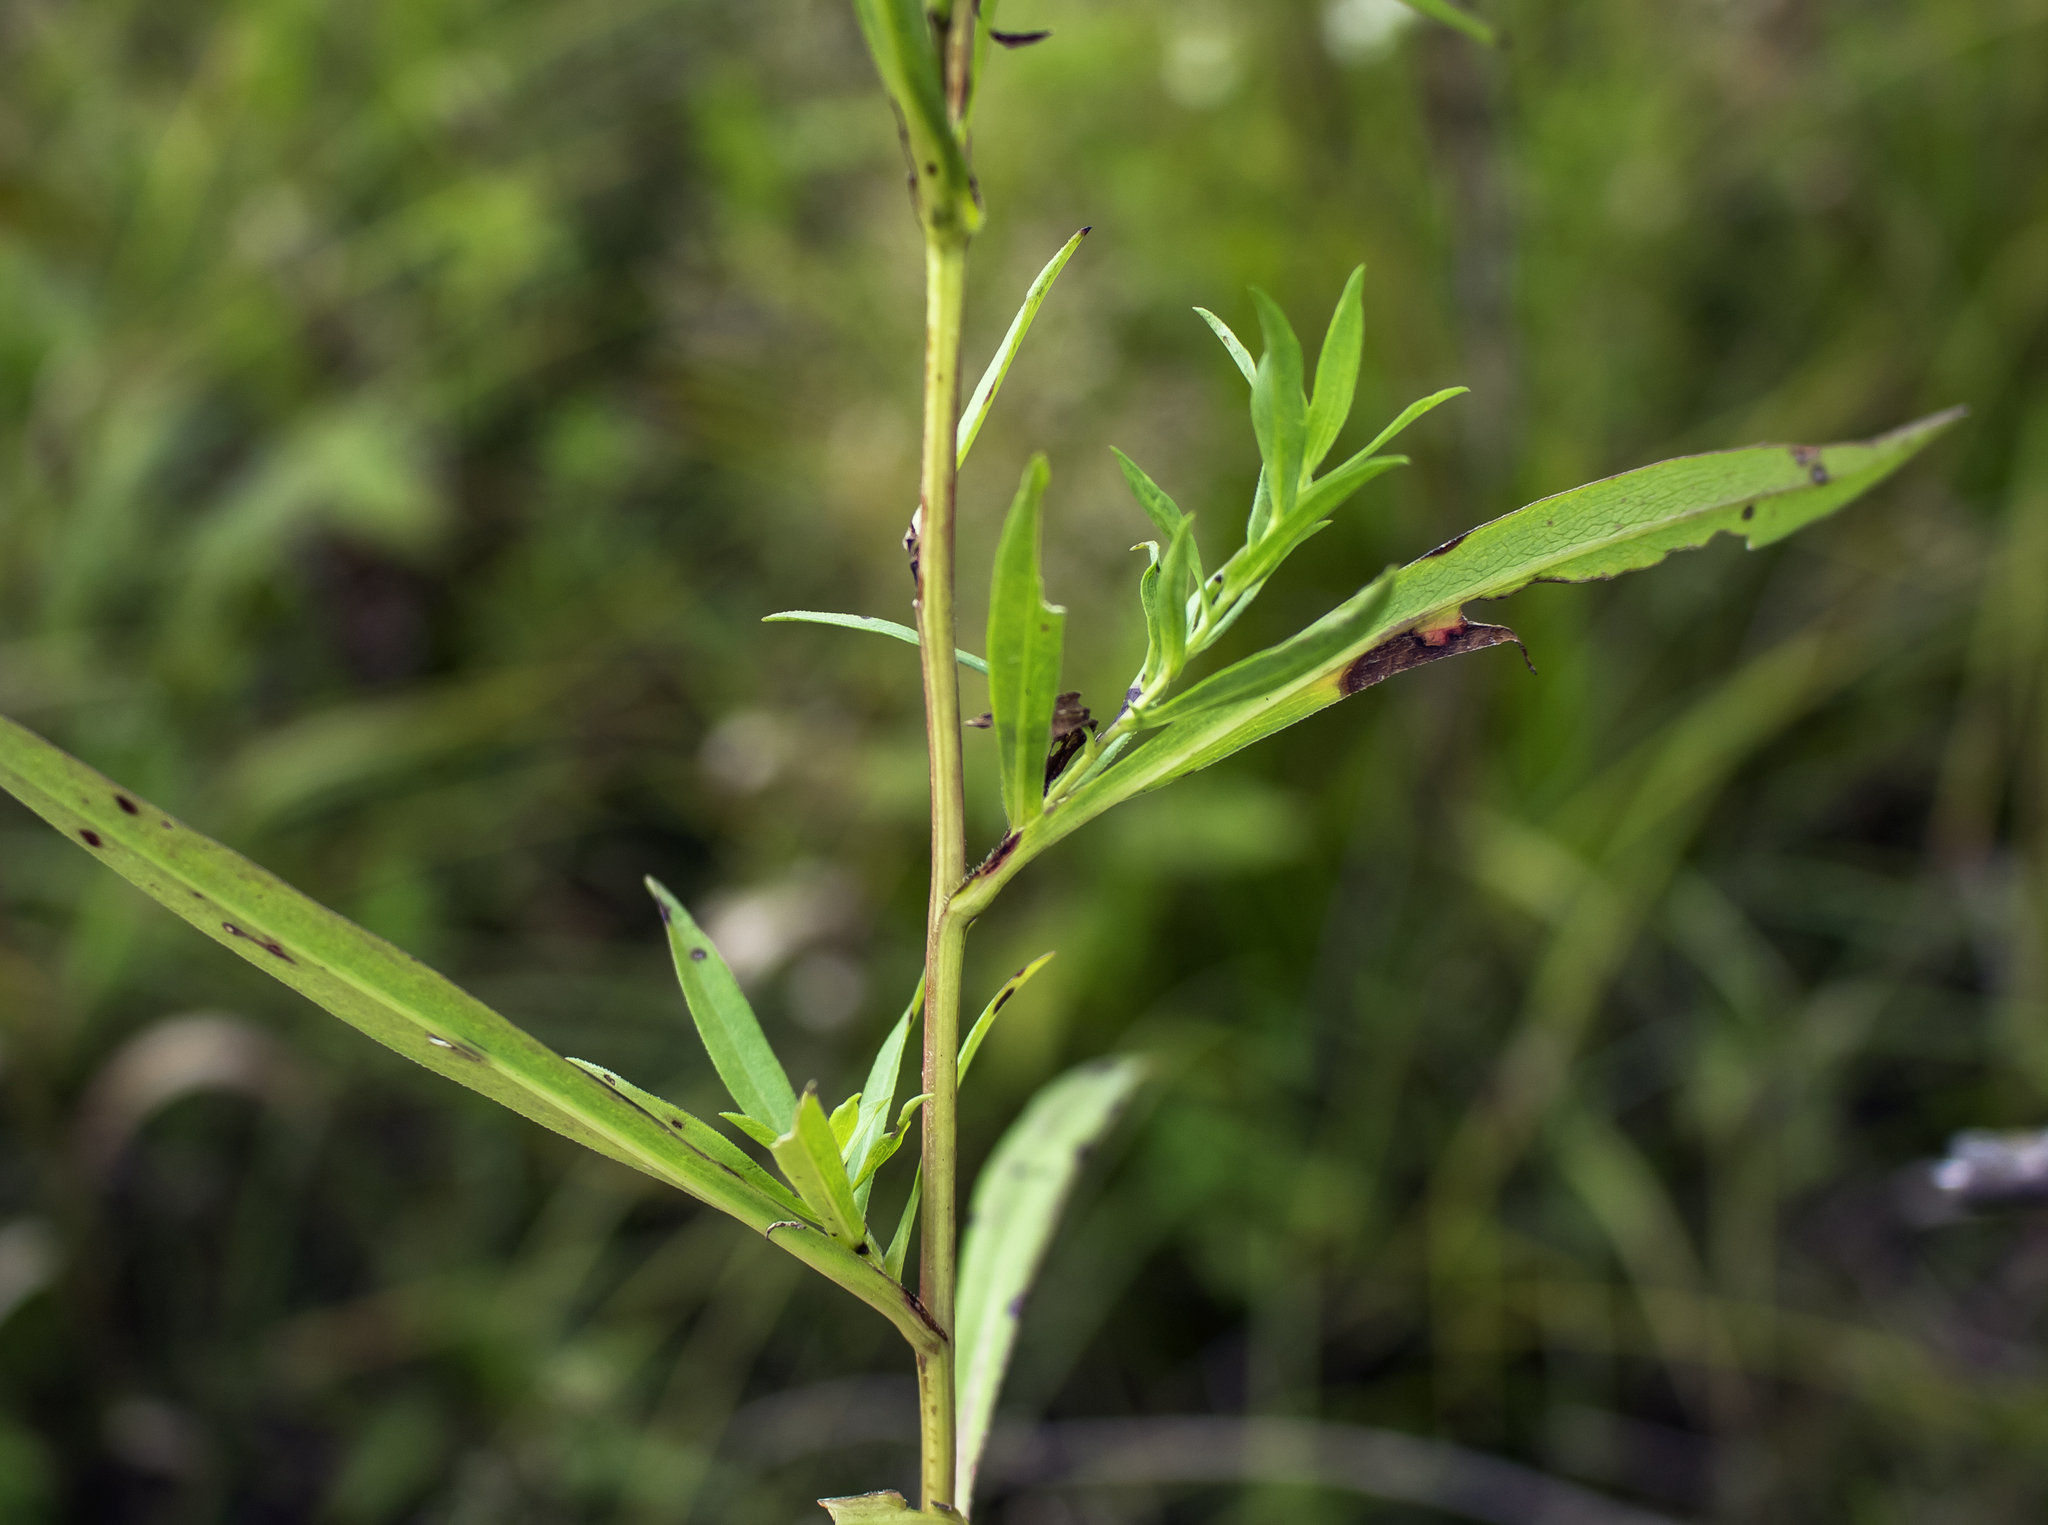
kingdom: Plantae
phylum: Tracheophyta
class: Magnoliopsida
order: Asterales
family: Asteraceae
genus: Symphyotrichum
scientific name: Symphyotrichum lanceolatum
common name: Panicled aster
